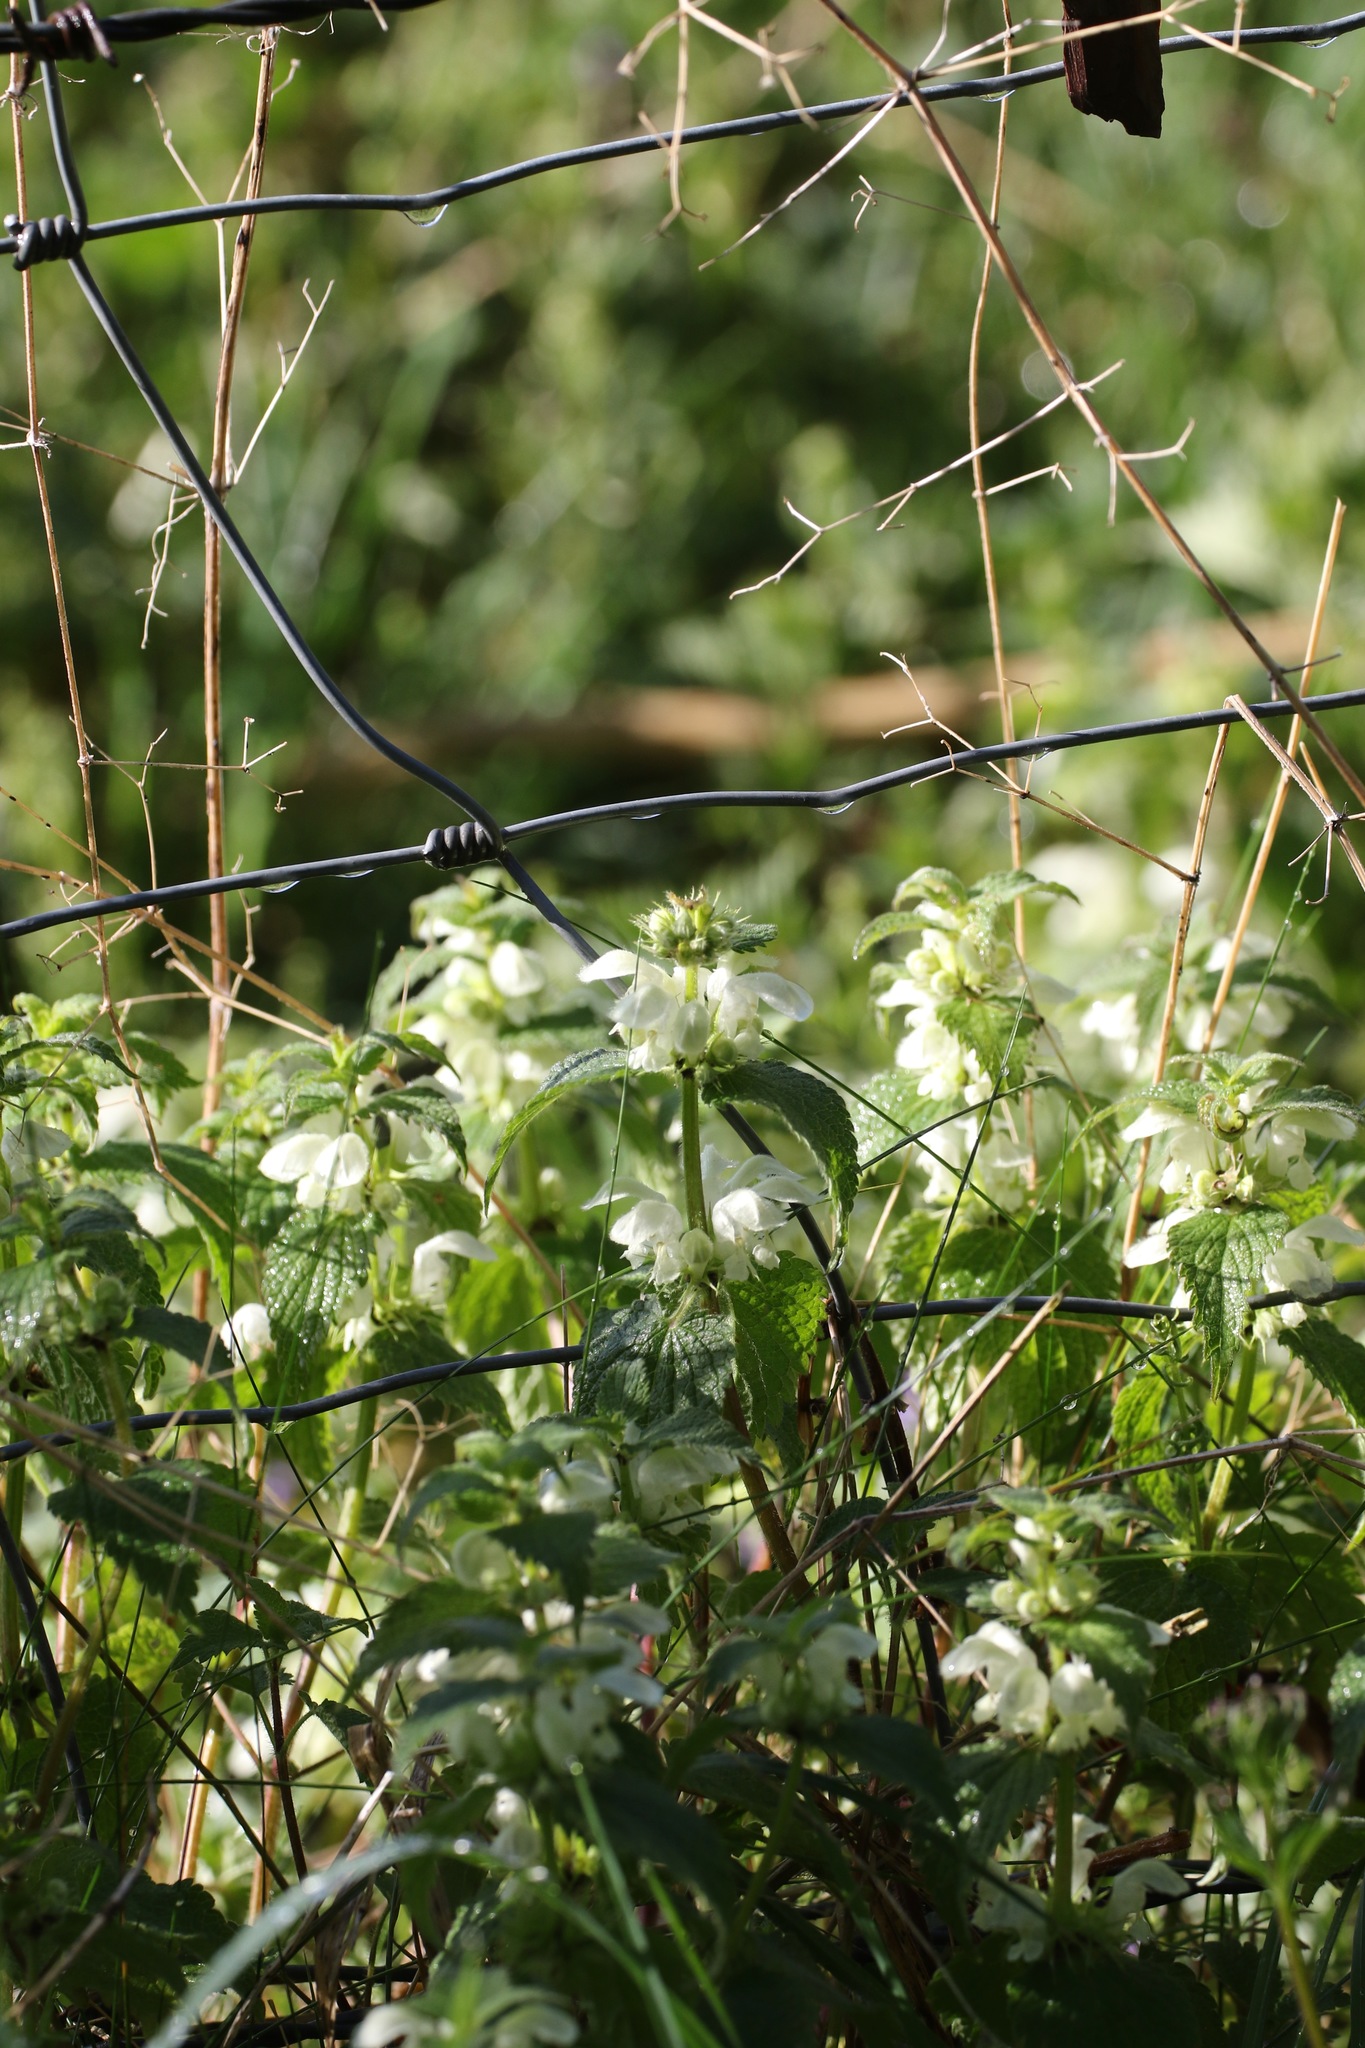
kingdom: Plantae
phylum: Tracheophyta
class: Magnoliopsida
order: Lamiales
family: Lamiaceae
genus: Lamium
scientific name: Lamium album
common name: White dead-nettle
